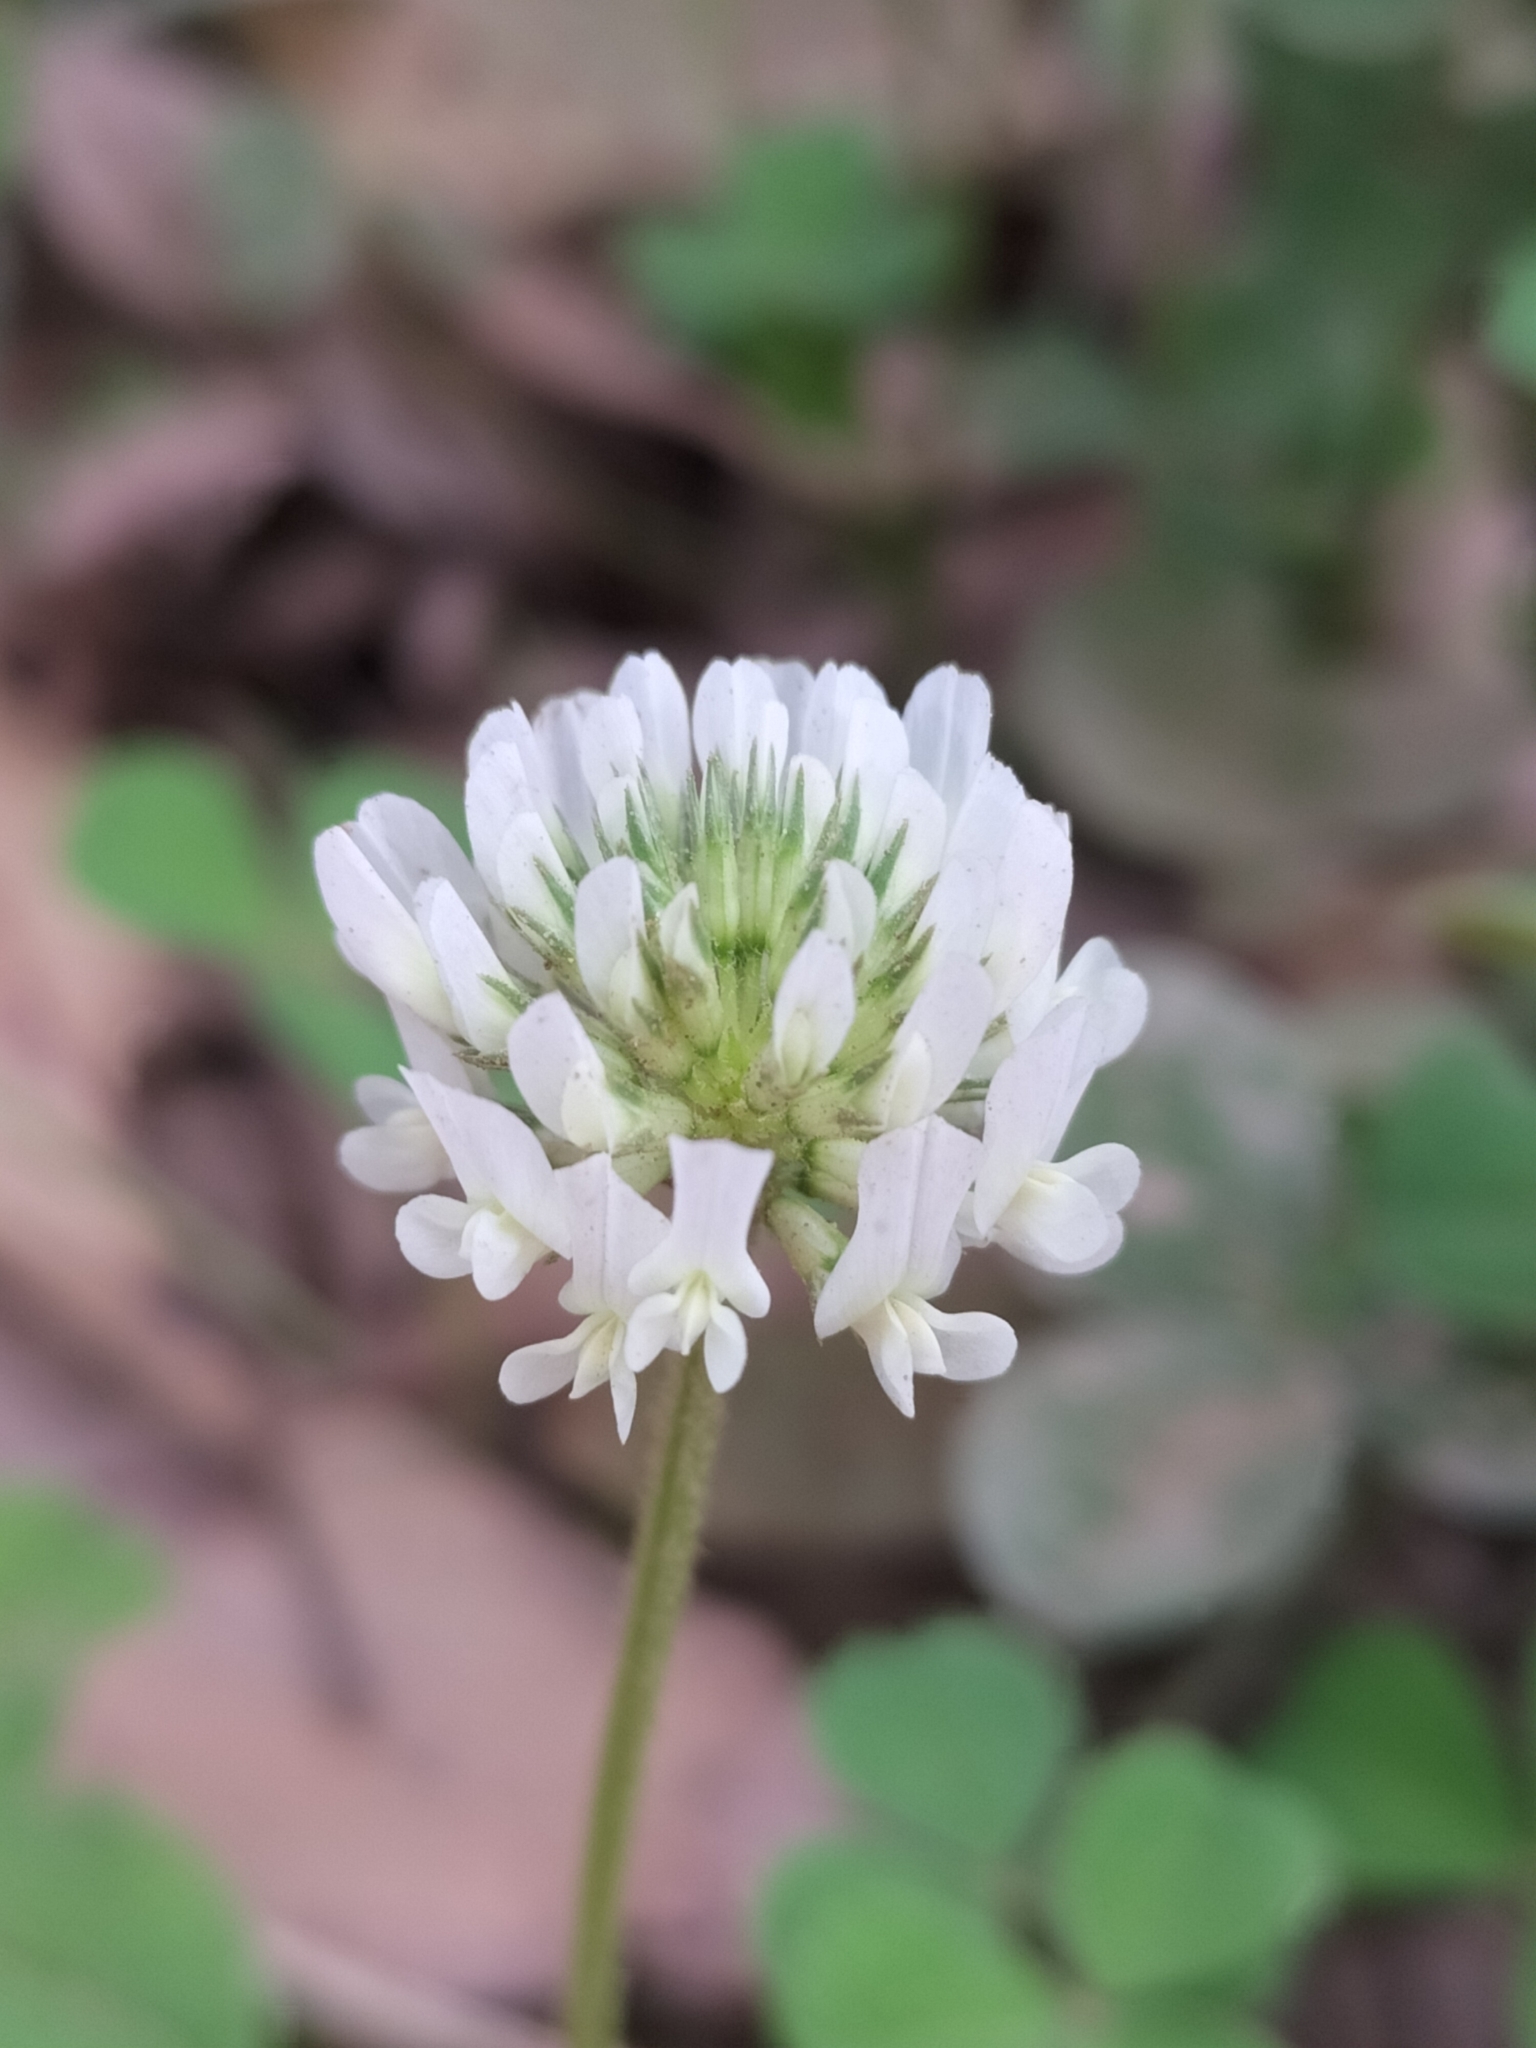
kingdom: Plantae
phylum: Tracheophyta
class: Magnoliopsida
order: Fabales
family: Fabaceae
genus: Trifolium
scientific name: Trifolium repens
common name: White clover
